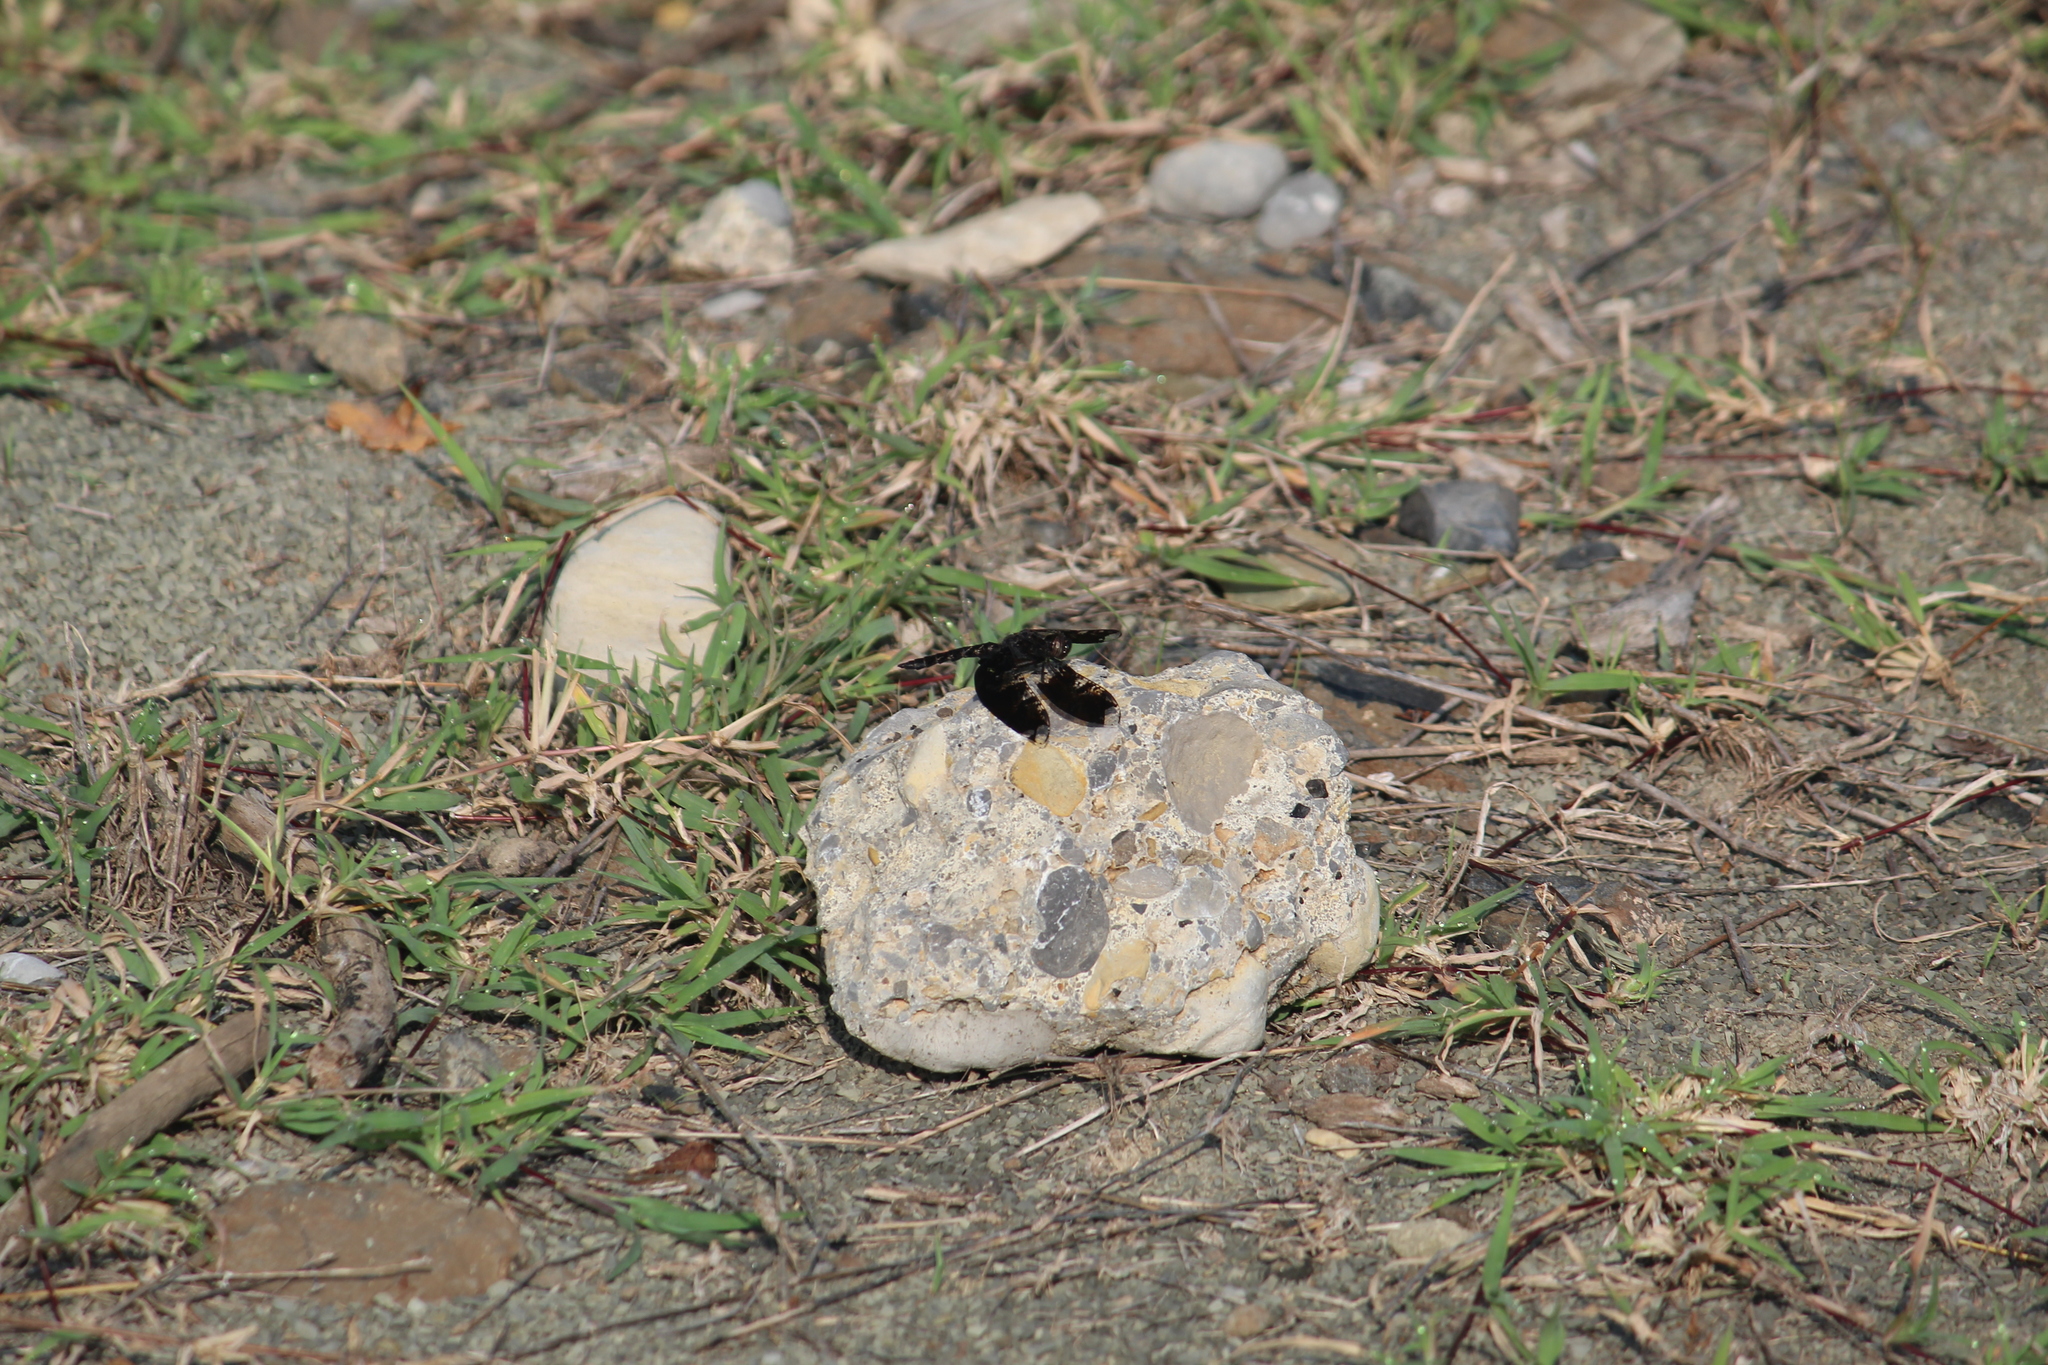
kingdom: Animalia
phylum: Arthropoda
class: Insecta
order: Odonata
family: Libellulidae
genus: Pseudoleon
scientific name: Pseudoleon superbus
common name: Filigree skimmer
